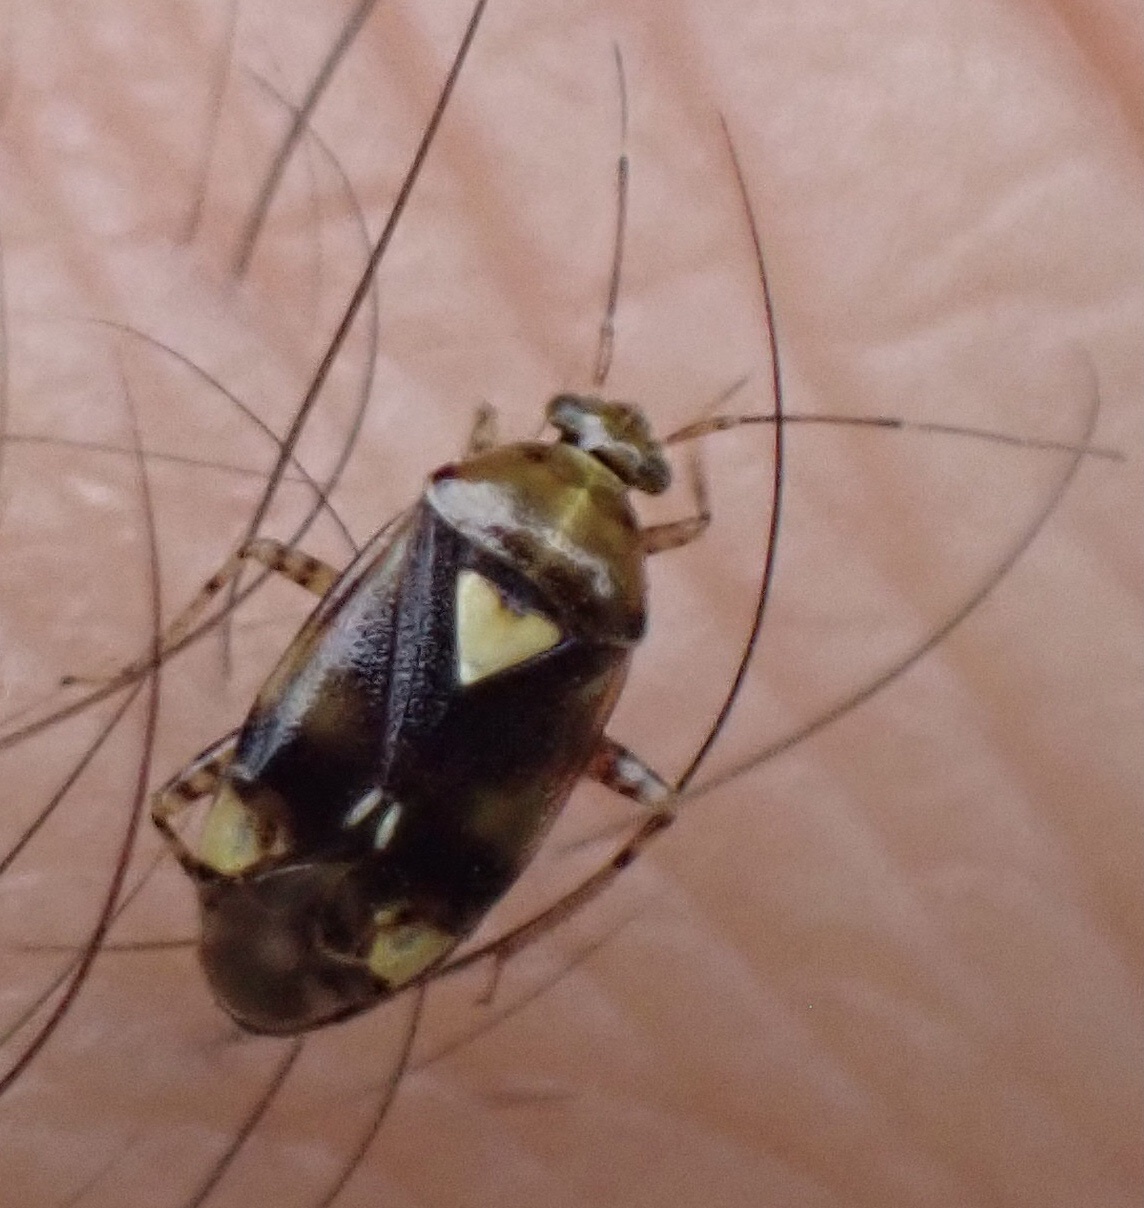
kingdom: Animalia
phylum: Arthropoda
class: Insecta
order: Hemiptera
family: Miridae
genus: Liocoris
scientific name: Liocoris tripustulatus
